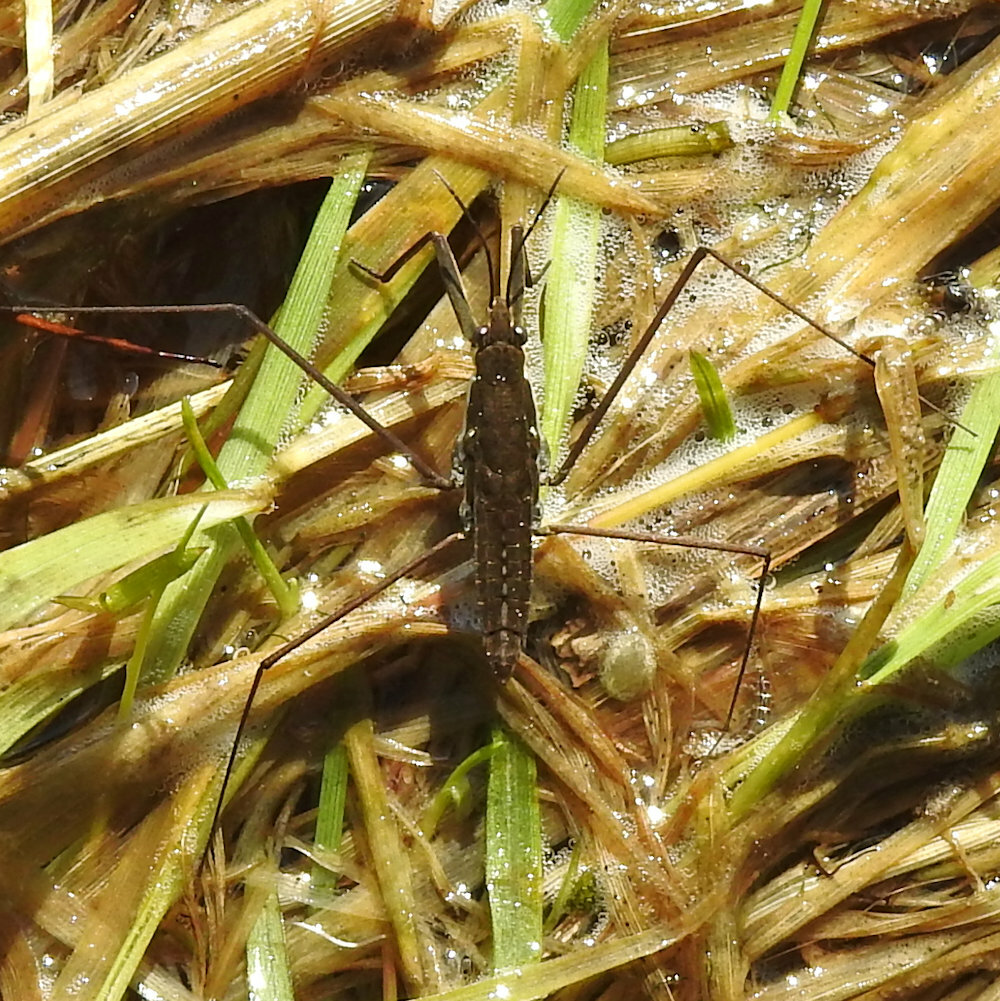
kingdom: Animalia
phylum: Arthropoda
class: Insecta
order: Hemiptera
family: Gerridae
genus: Aquarius
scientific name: Aquarius remigis
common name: Common water strider
